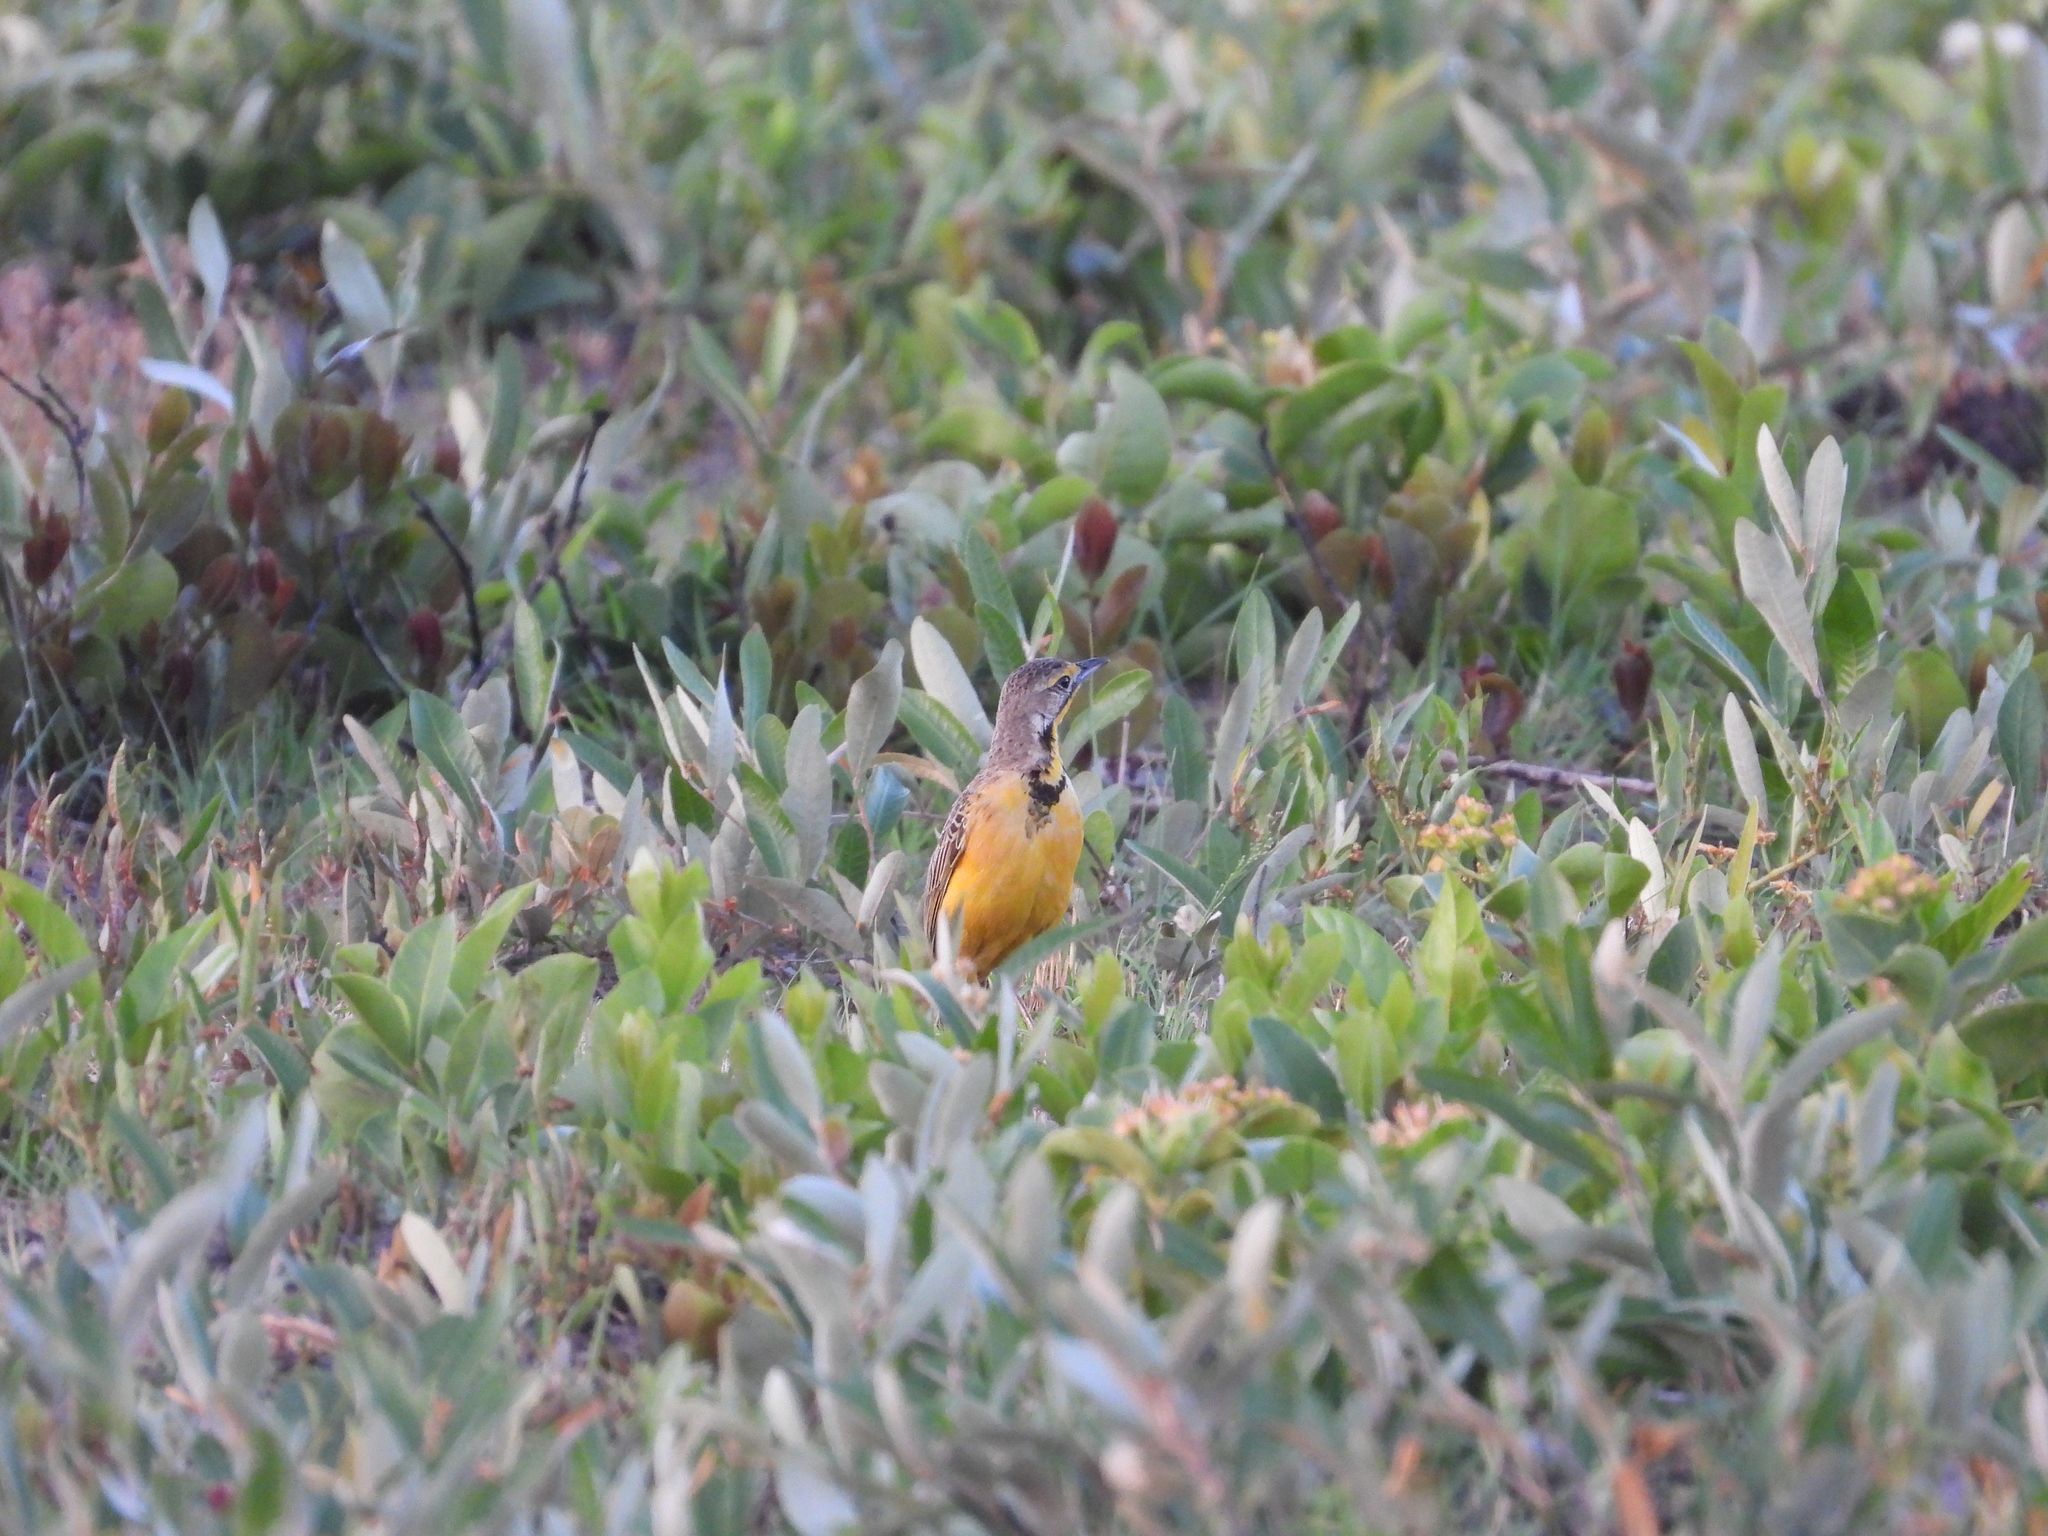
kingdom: Animalia
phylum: Chordata
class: Aves
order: Passeriformes
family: Motacillidae
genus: Macronyx
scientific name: Macronyx fuelleborni
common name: Fülleborn's longclaw
